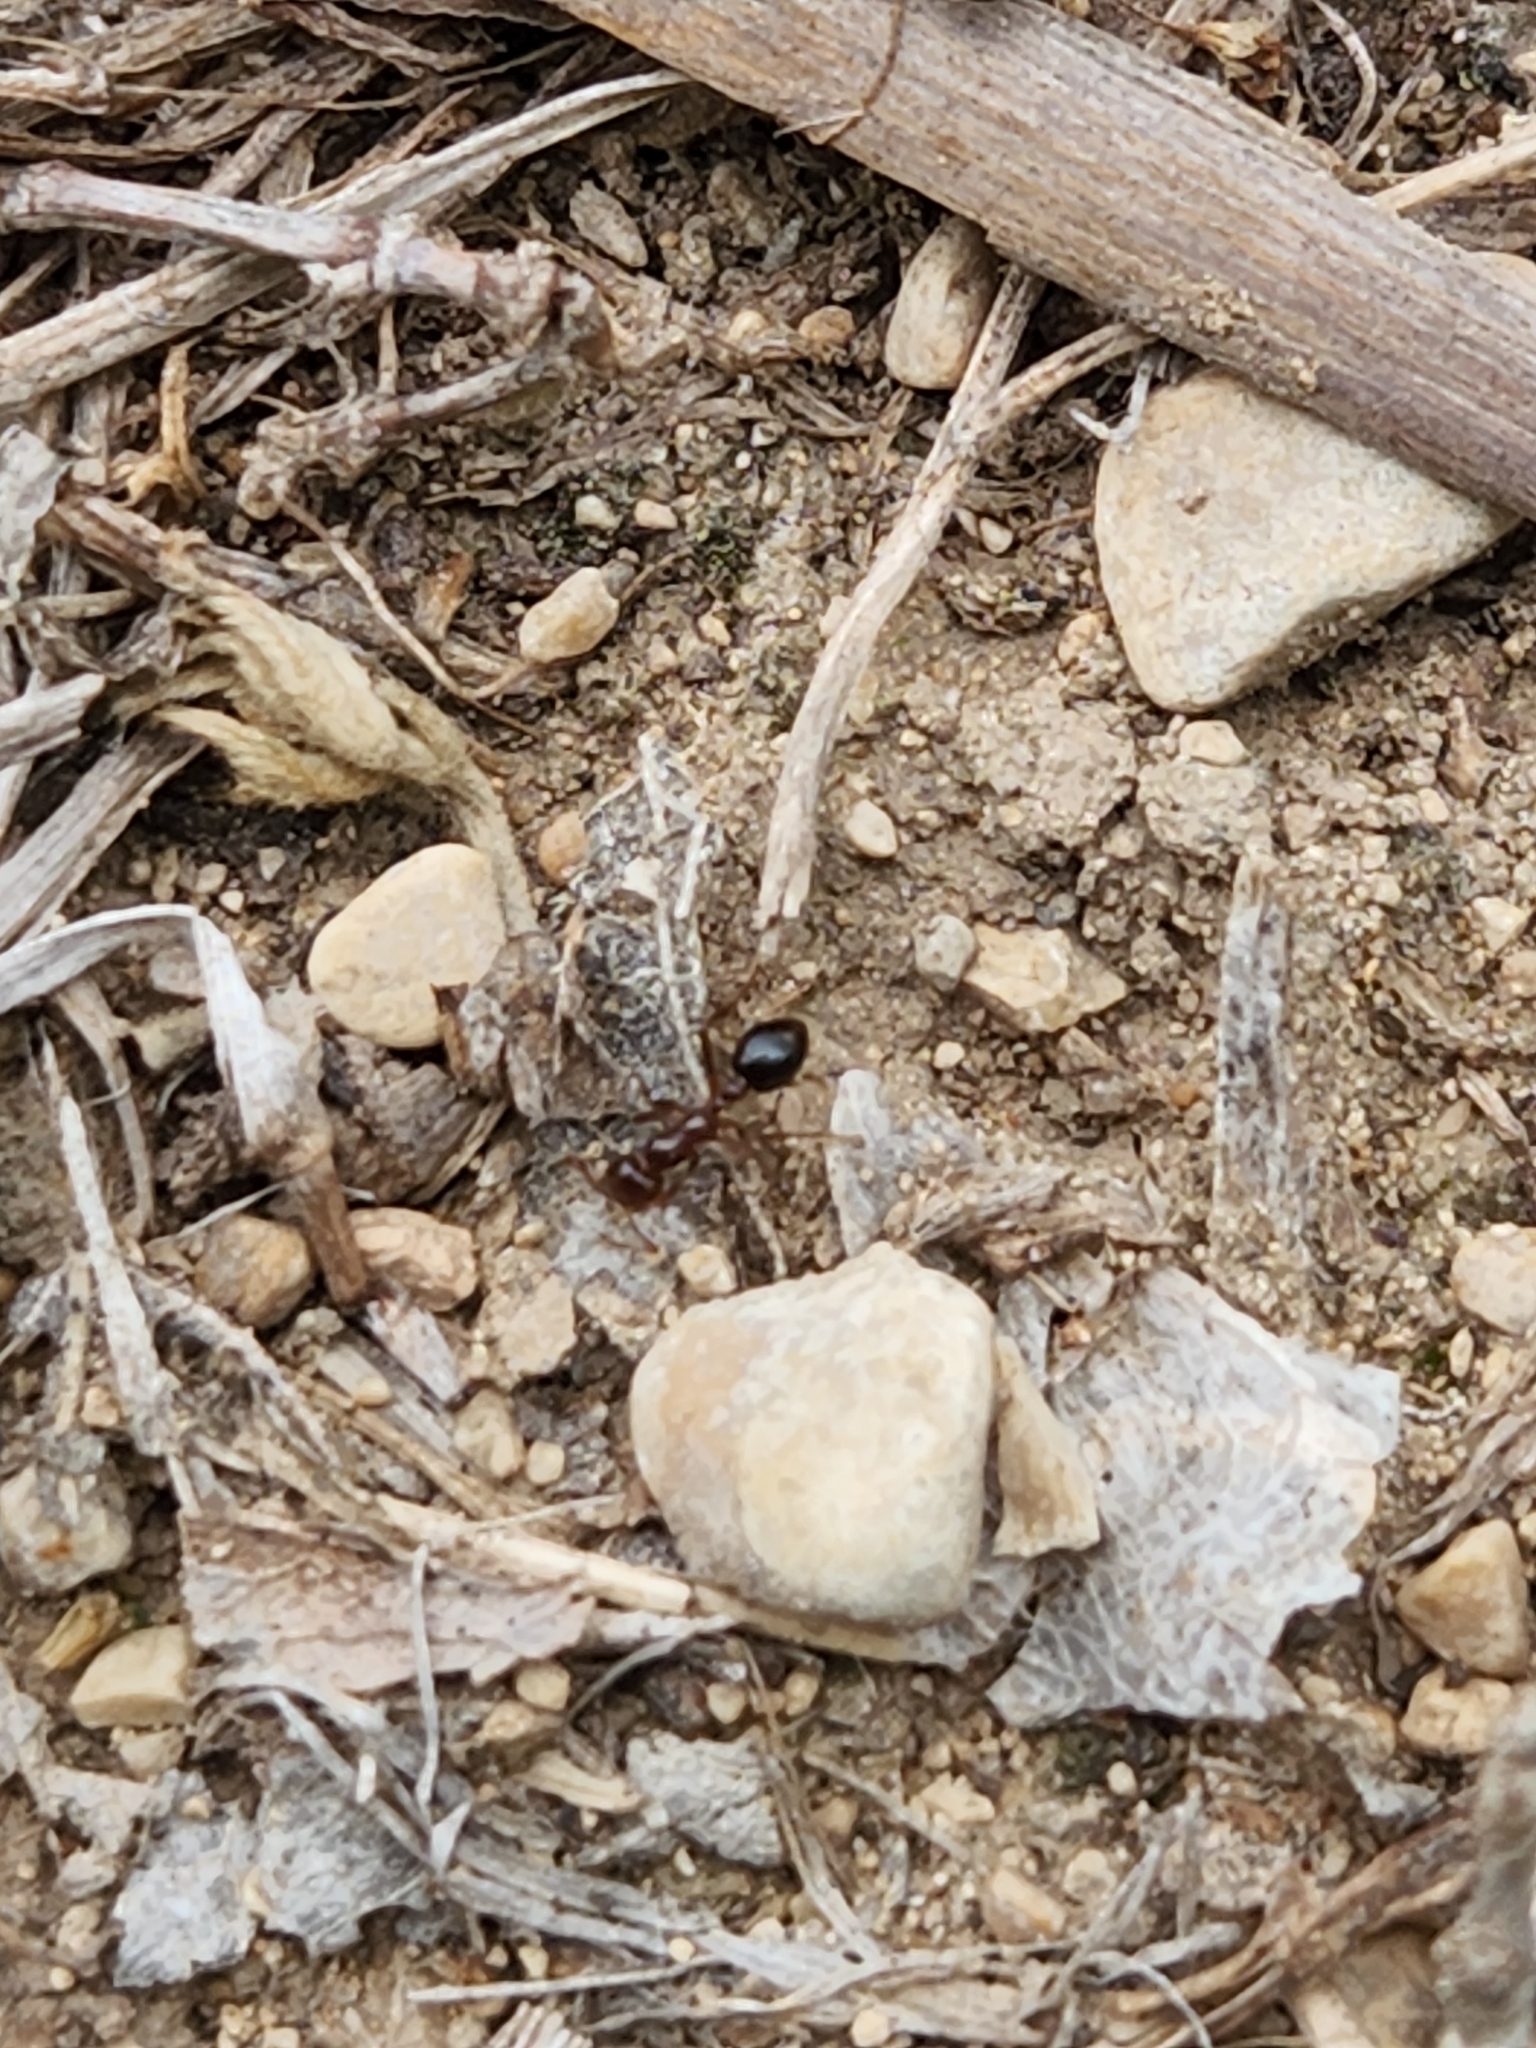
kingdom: Animalia
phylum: Arthropoda
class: Insecta
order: Hymenoptera
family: Formicidae
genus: Solenopsis
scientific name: Solenopsis invicta
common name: Red imported fire ant
